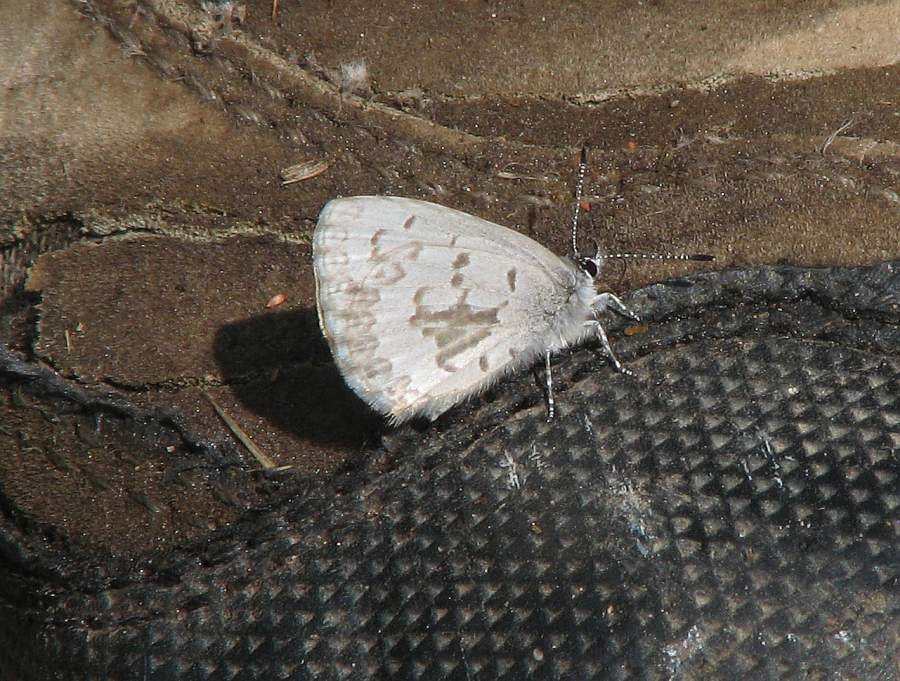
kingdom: Animalia
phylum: Arthropoda
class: Insecta
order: Lepidoptera
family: Lycaenidae
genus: Celastrina
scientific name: Celastrina lucia
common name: Lucia azure
